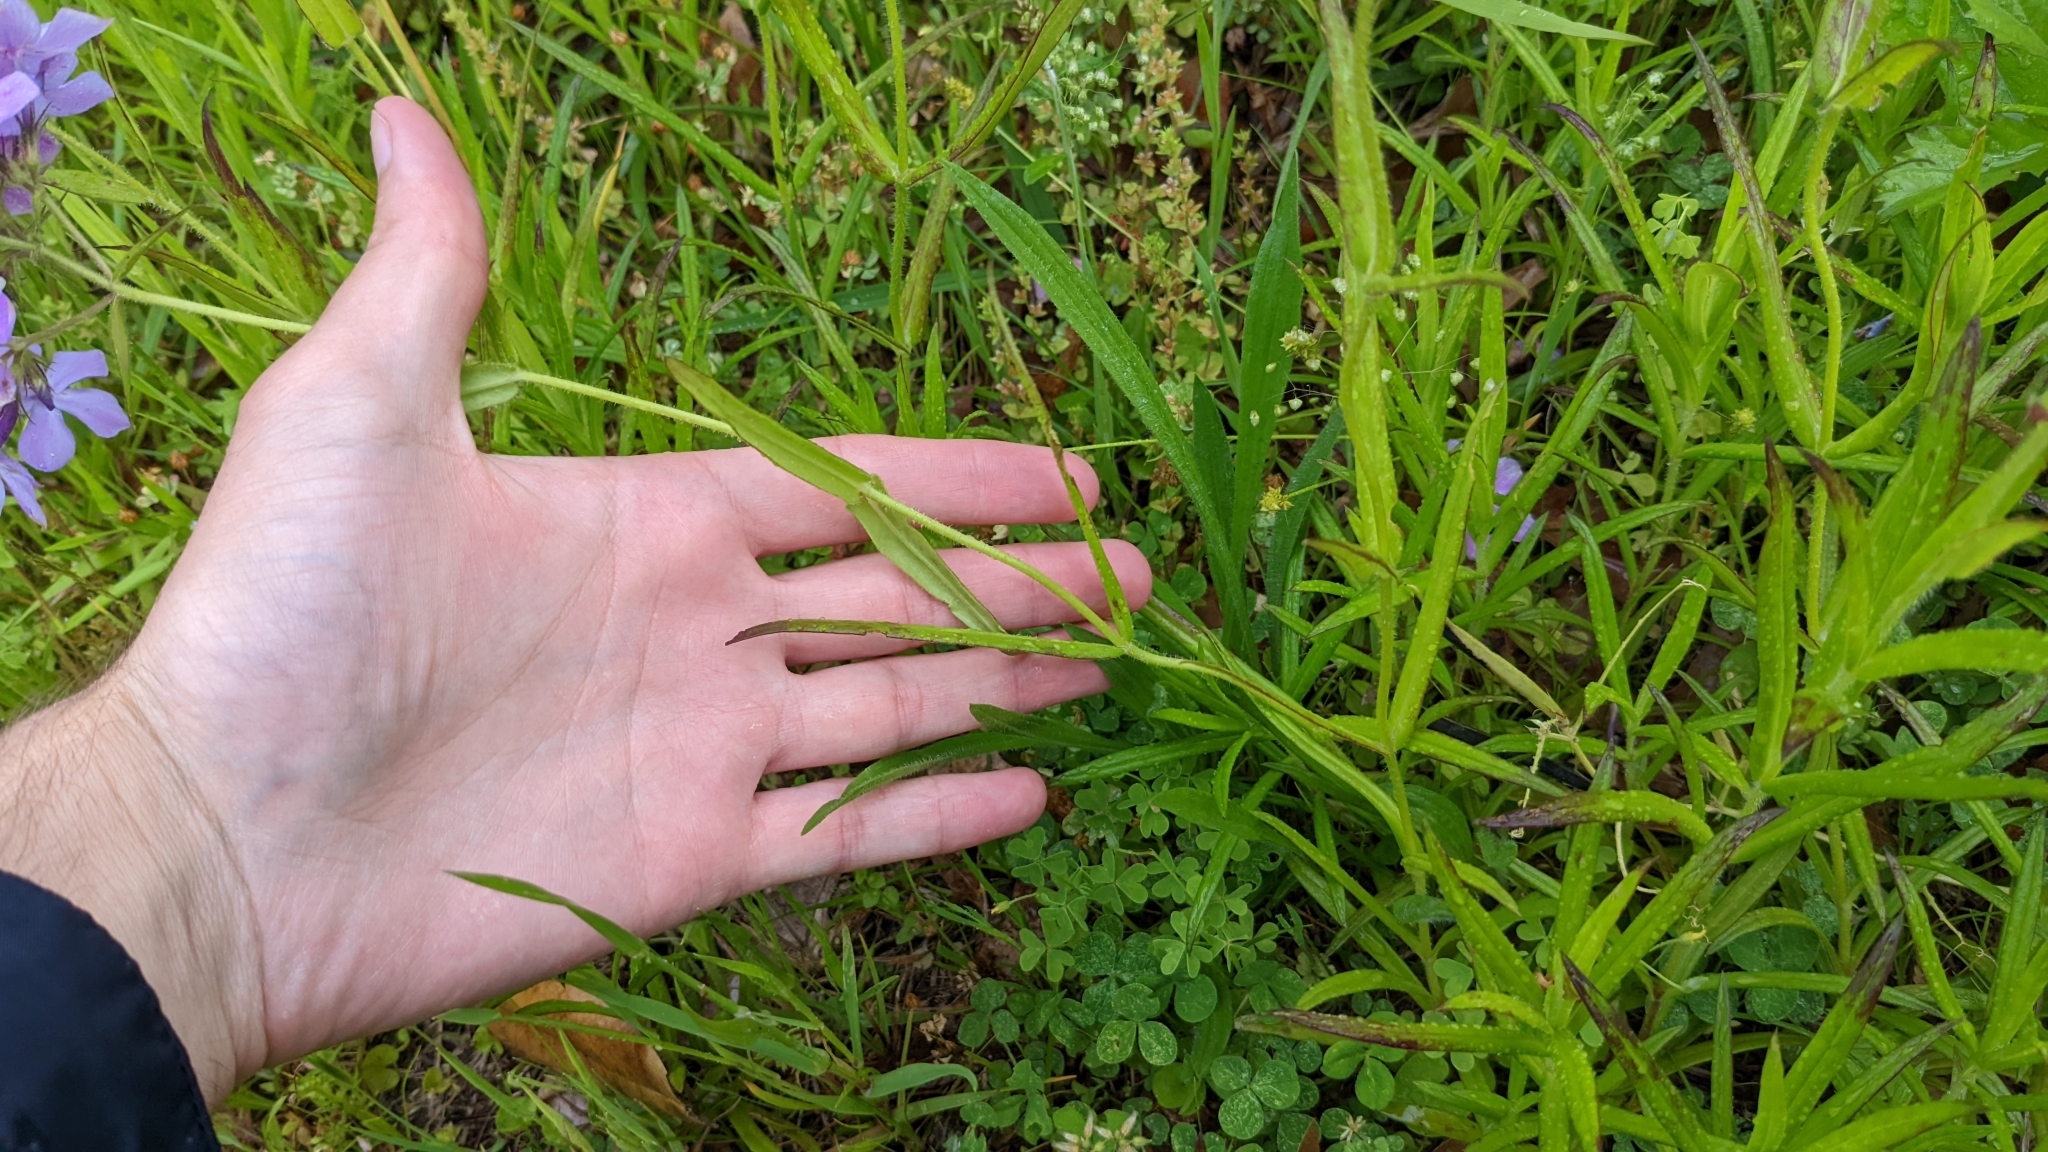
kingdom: Plantae
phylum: Tracheophyta
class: Magnoliopsida
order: Ericales
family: Polemoniaceae
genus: Phlox
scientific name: Phlox pilosa
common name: Prairie phlox
